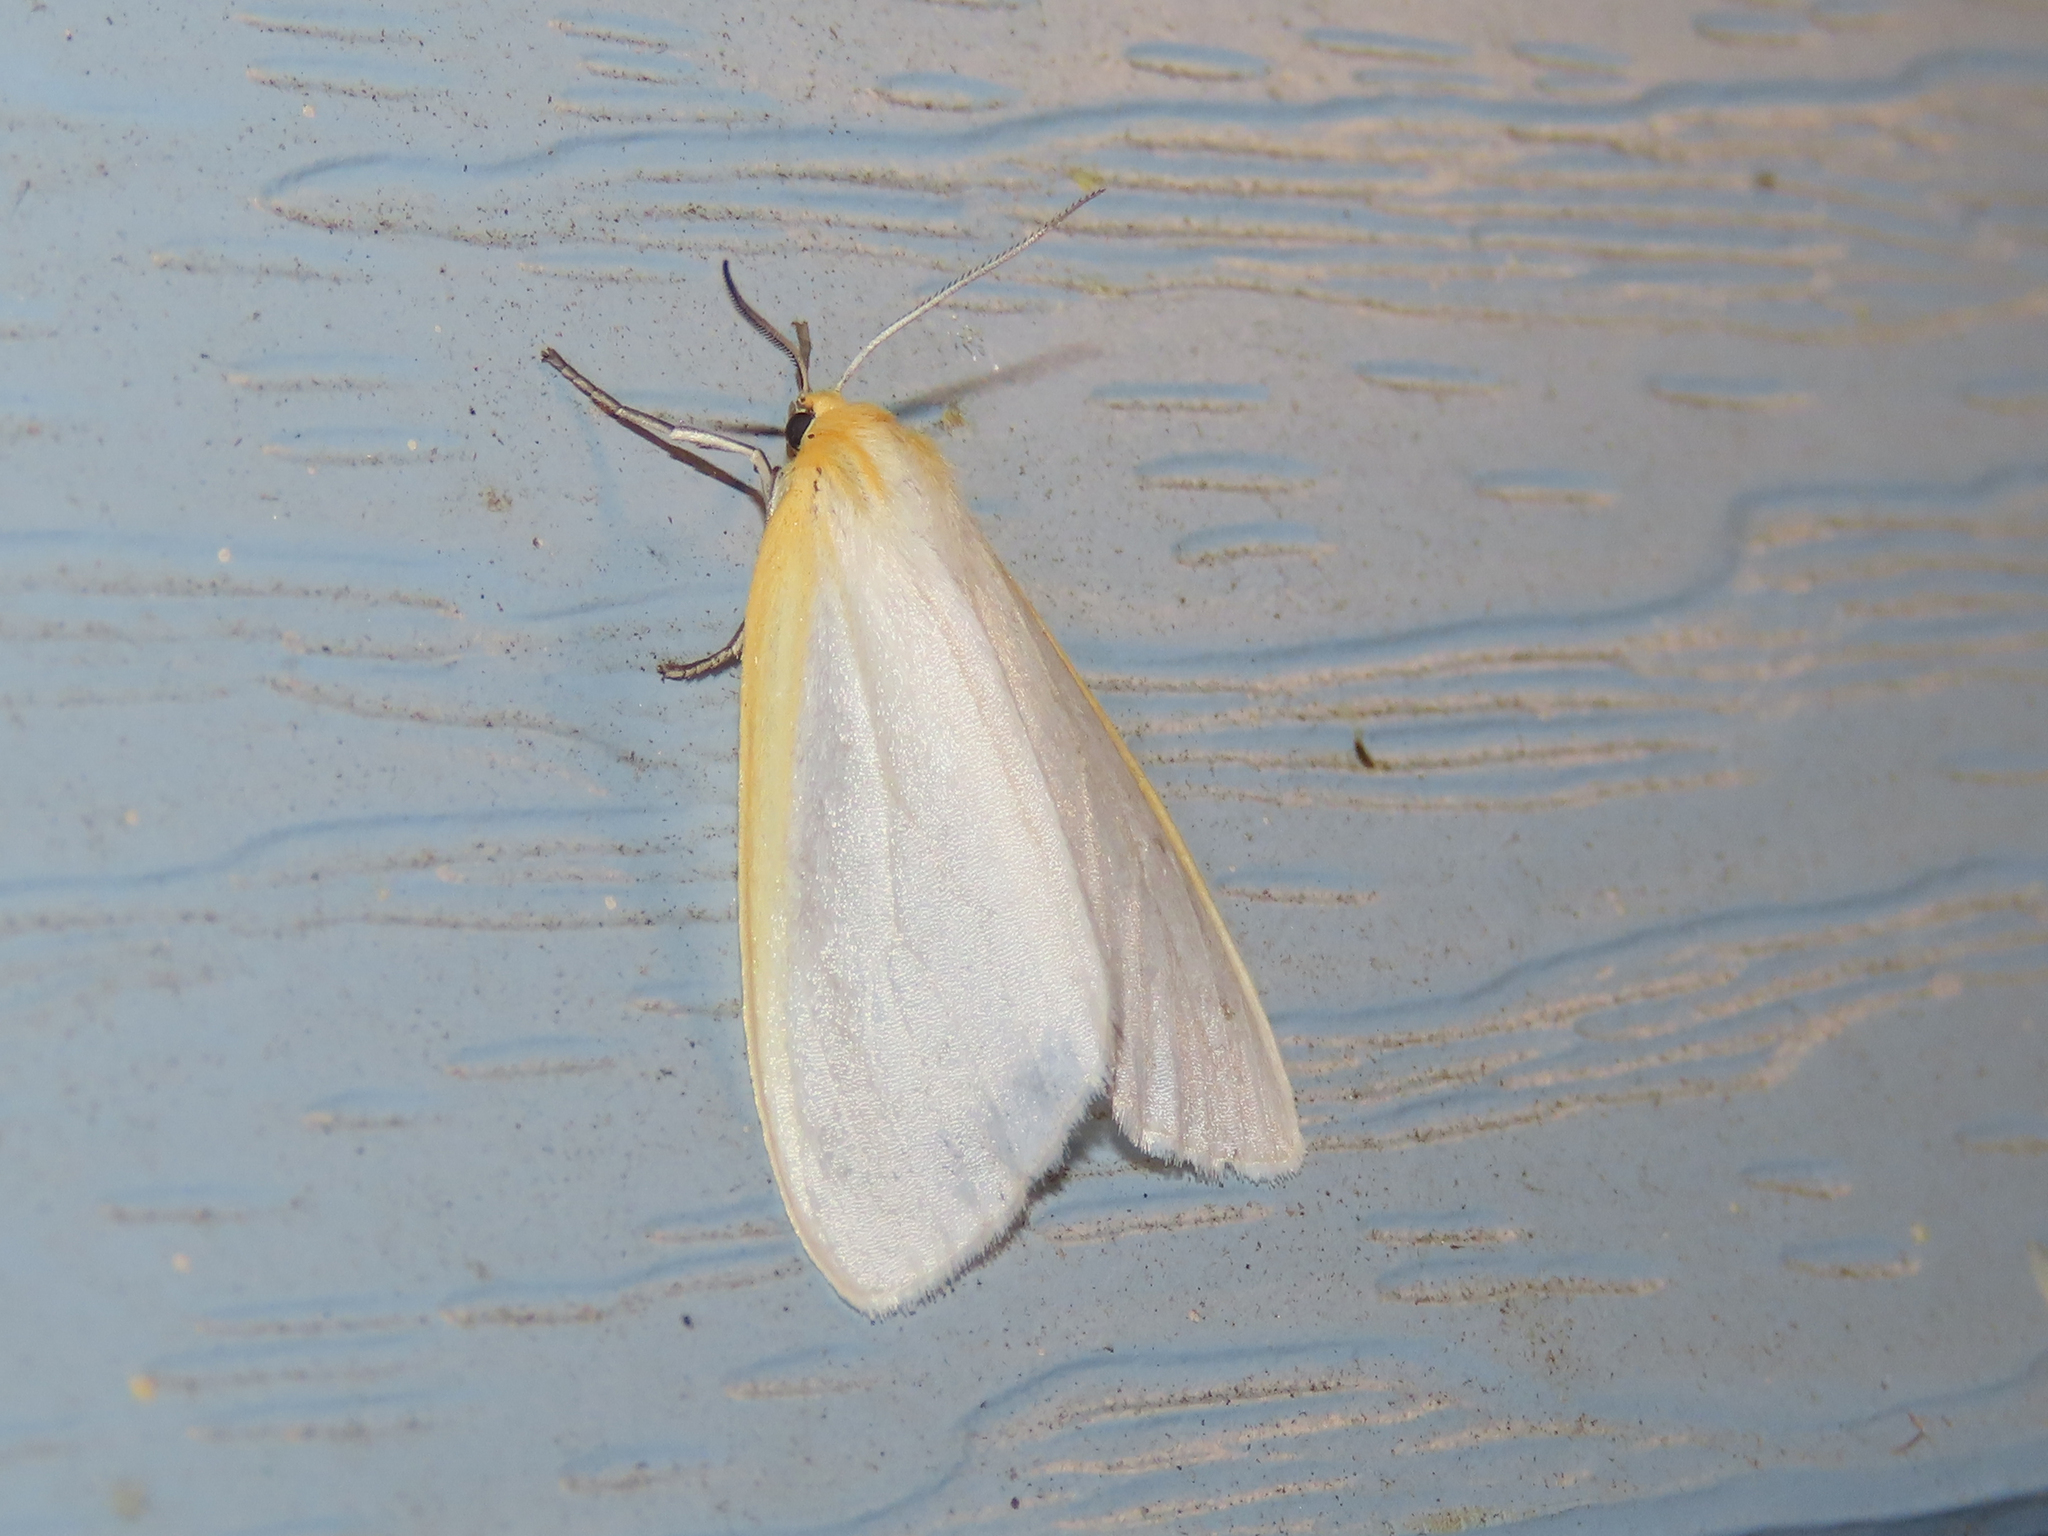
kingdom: Animalia
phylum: Arthropoda
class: Insecta
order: Lepidoptera
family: Erebidae
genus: Cycnia
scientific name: Cycnia tenera
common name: Delicate cycnia moth
